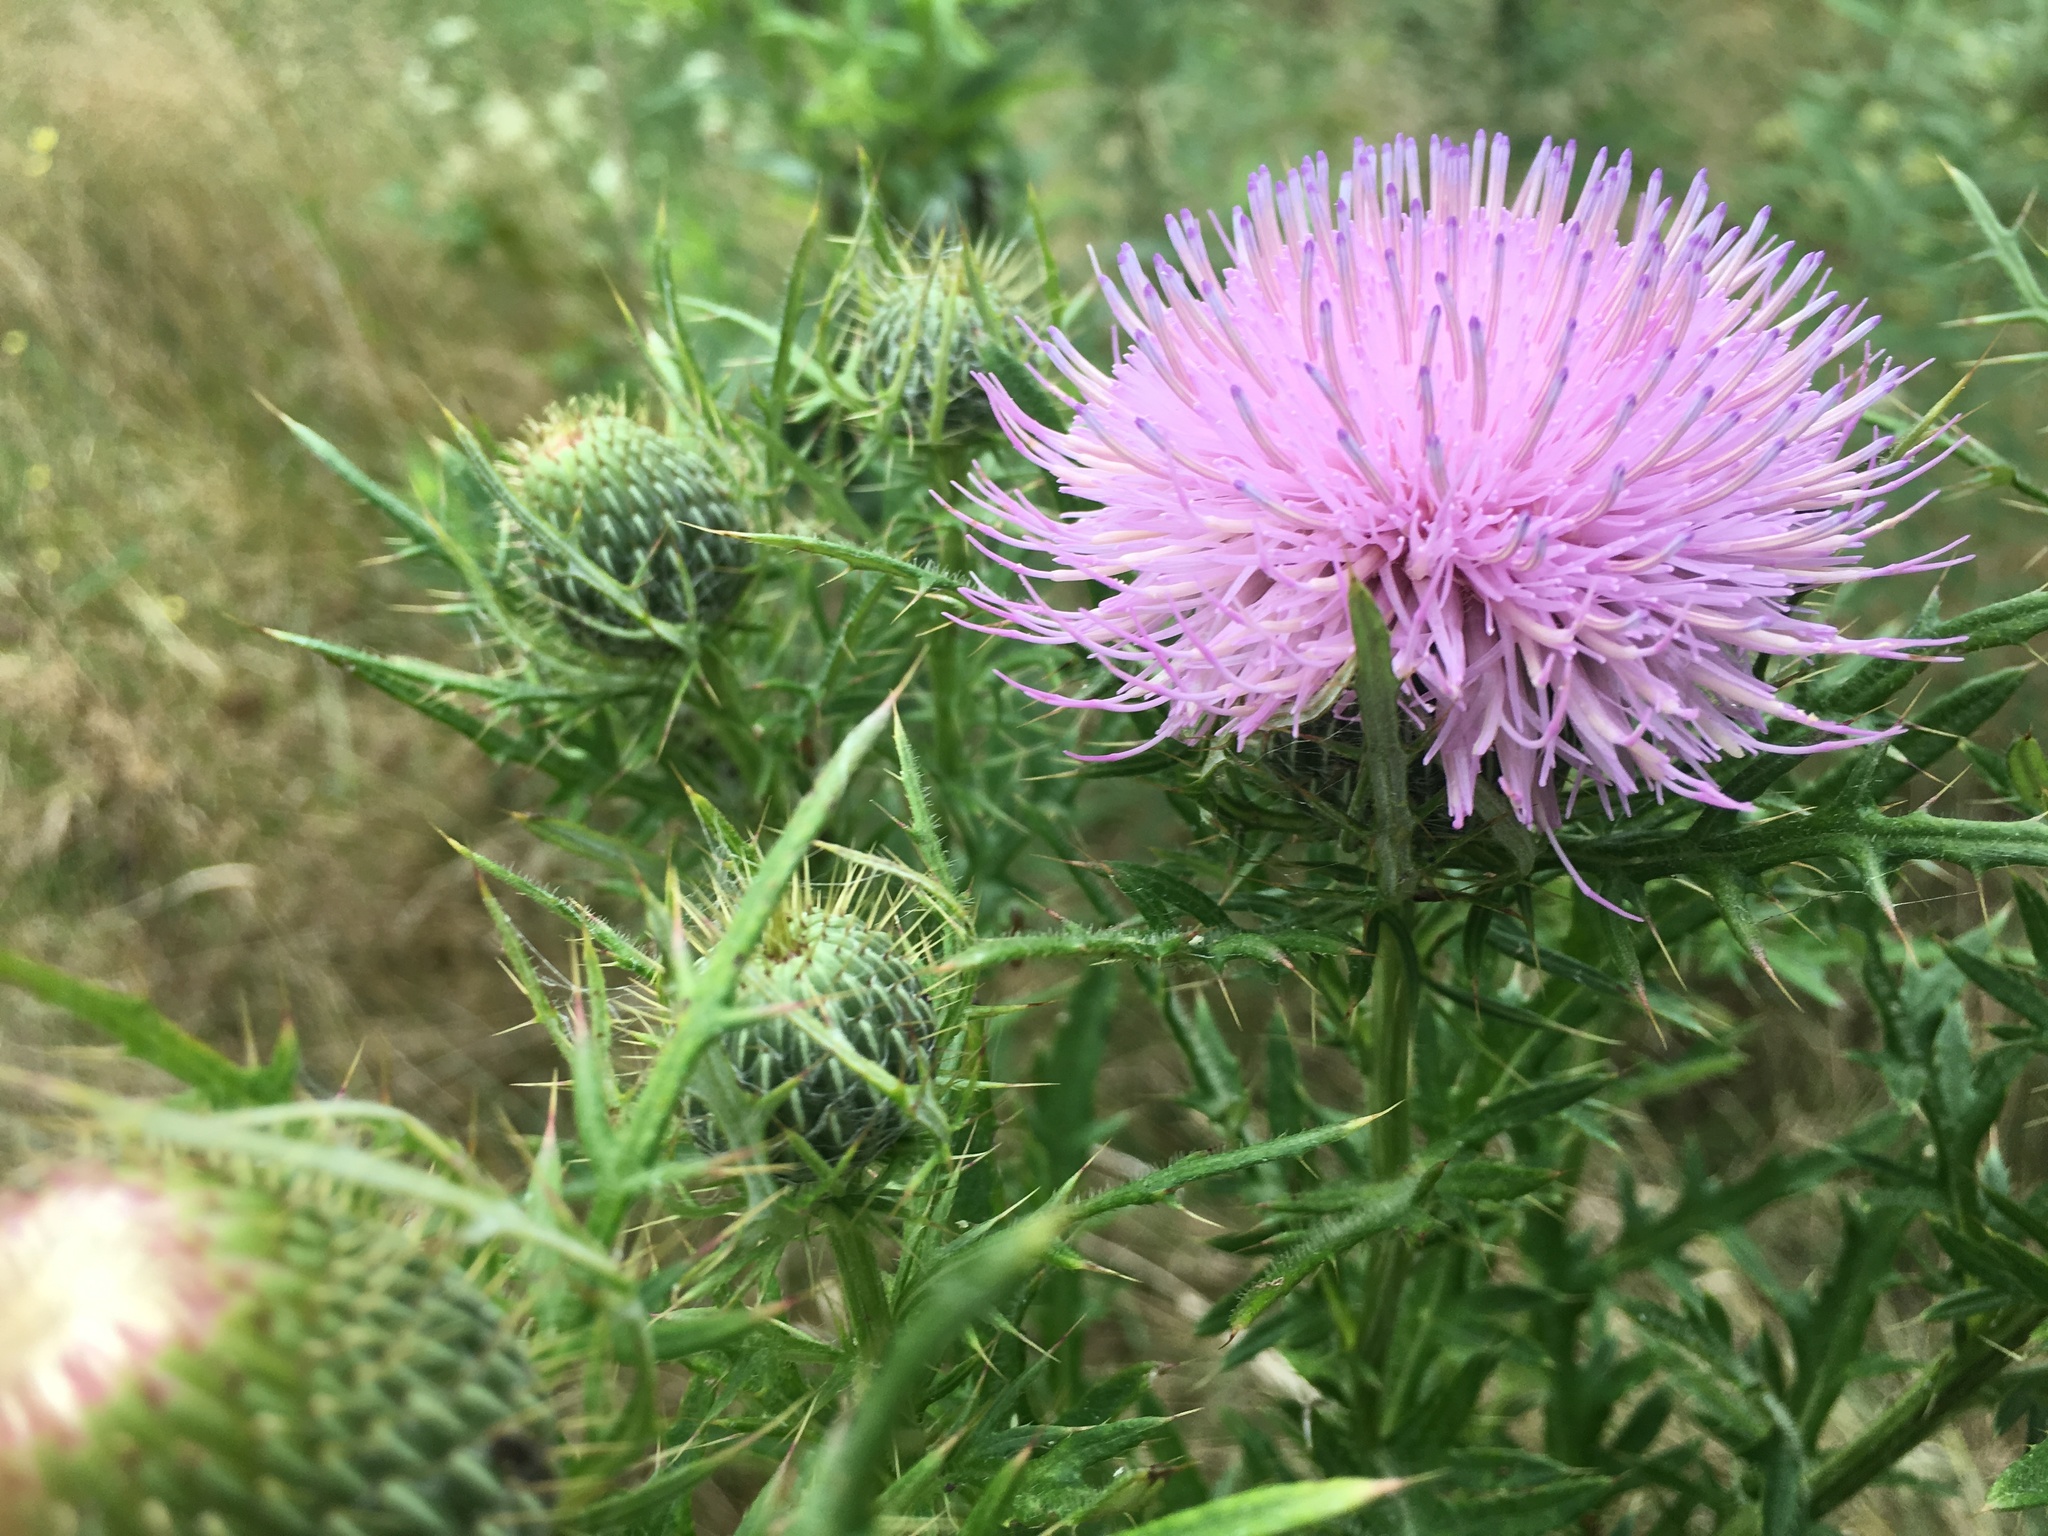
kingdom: Plantae
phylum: Tracheophyta
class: Magnoliopsida
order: Asterales
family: Asteraceae
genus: Cirsium
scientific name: Cirsium discolor
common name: Field thistle
